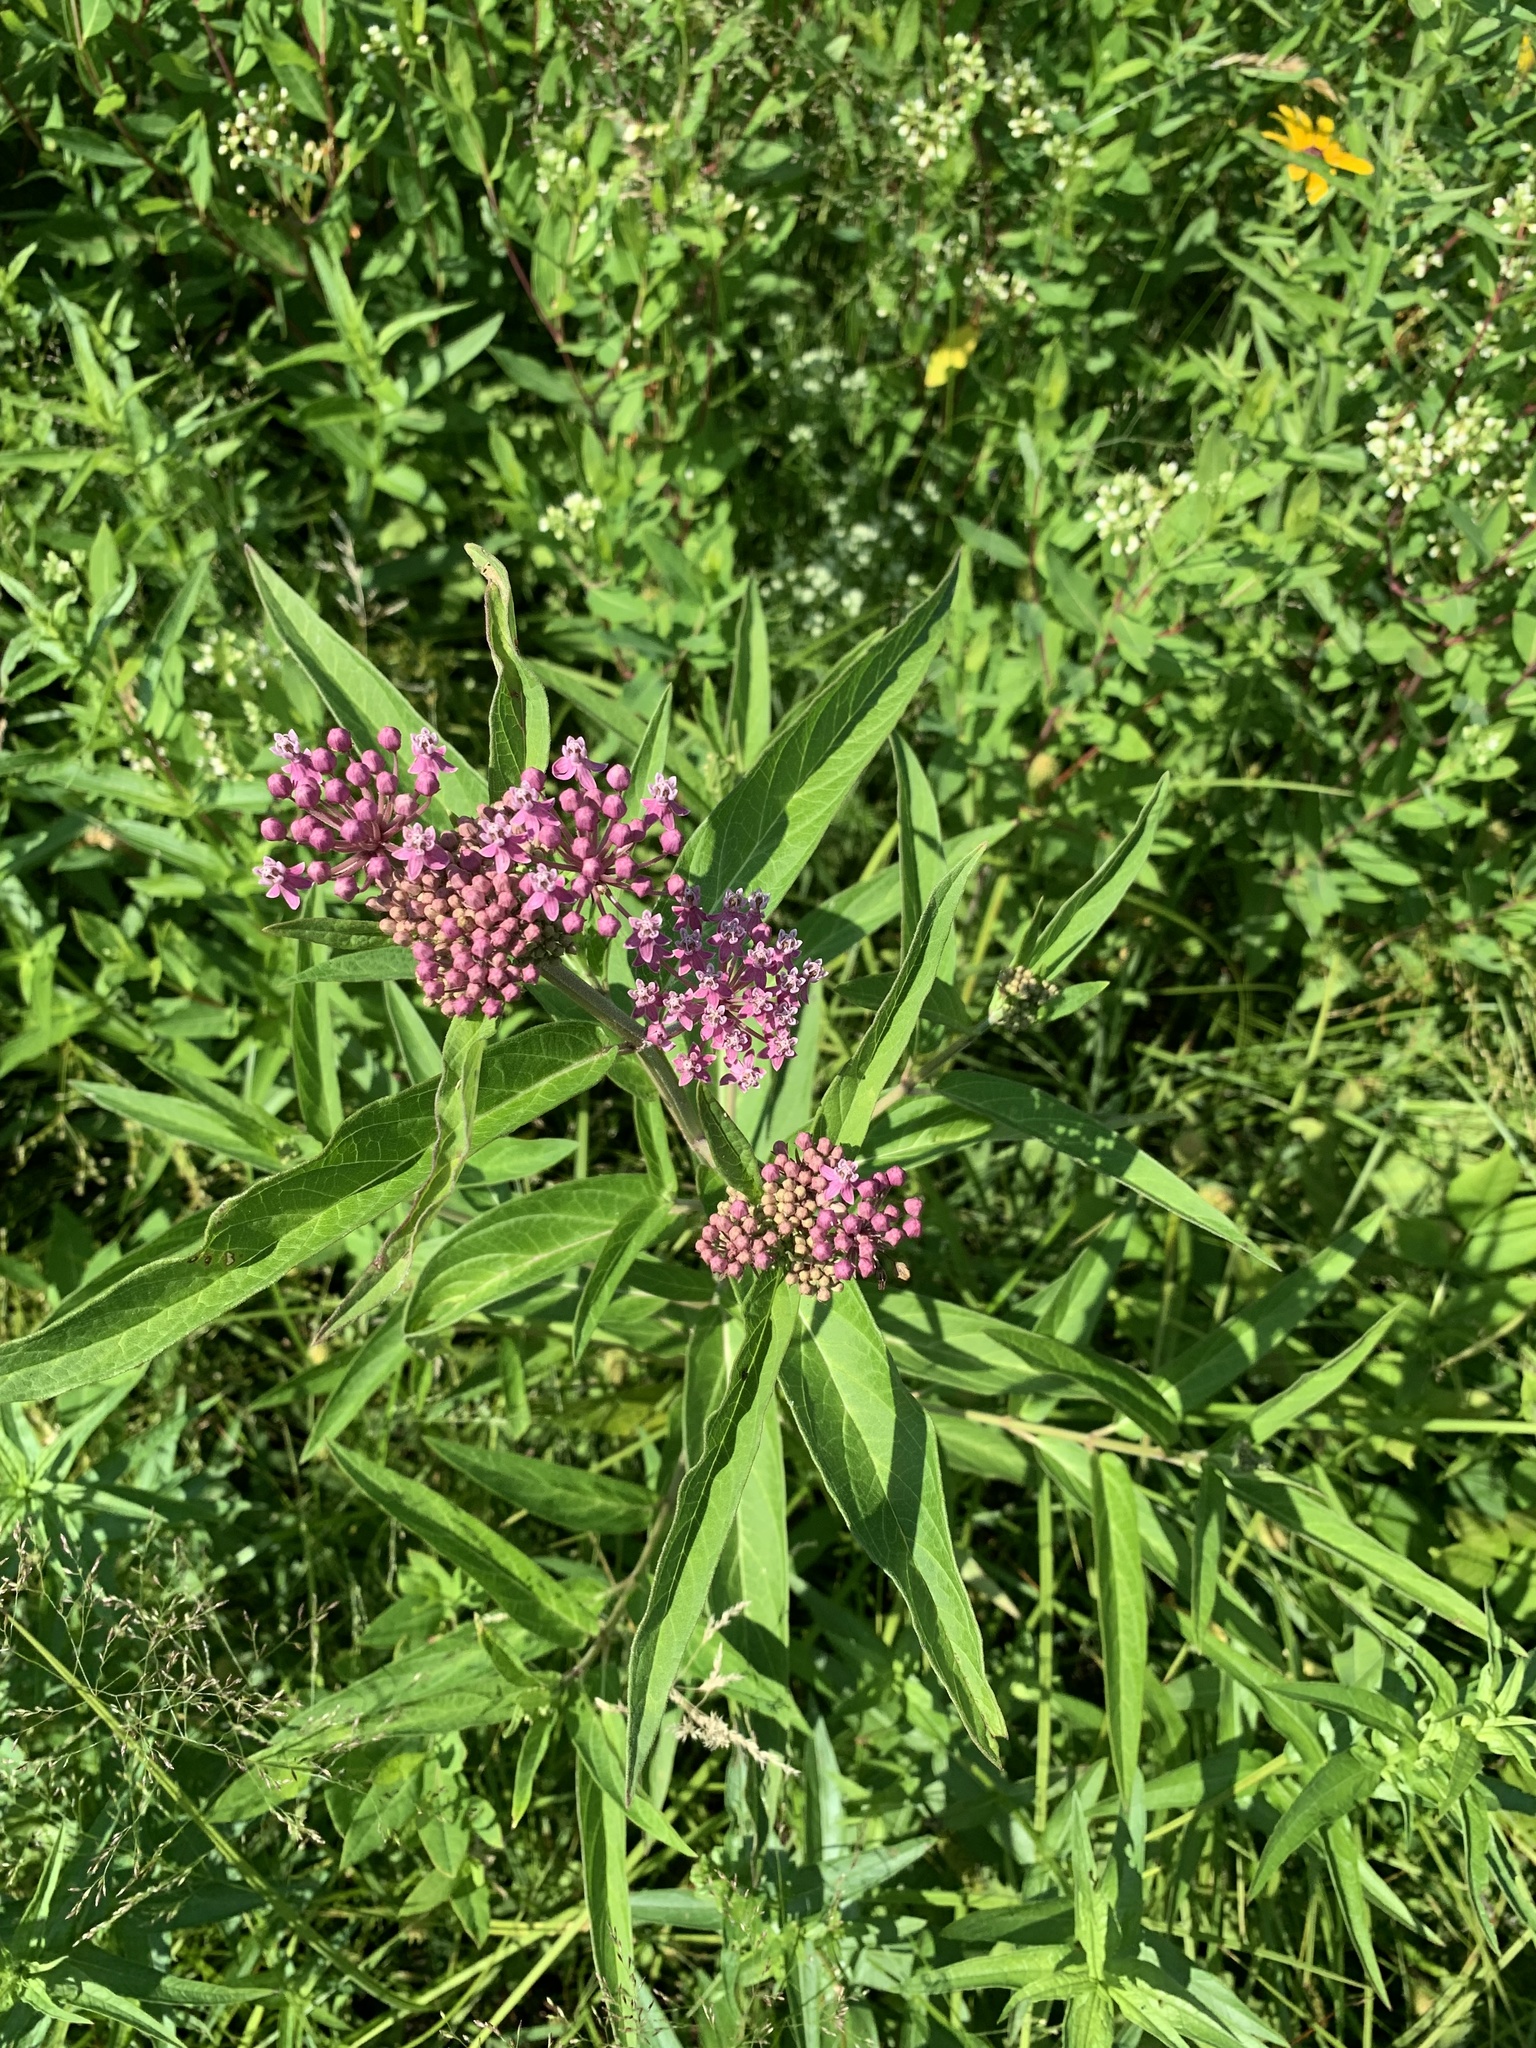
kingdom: Plantae
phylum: Tracheophyta
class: Magnoliopsida
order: Gentianales
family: Apocynaceae
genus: Asclepias
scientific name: Asclepias incarnata
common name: Swamp milkweed
